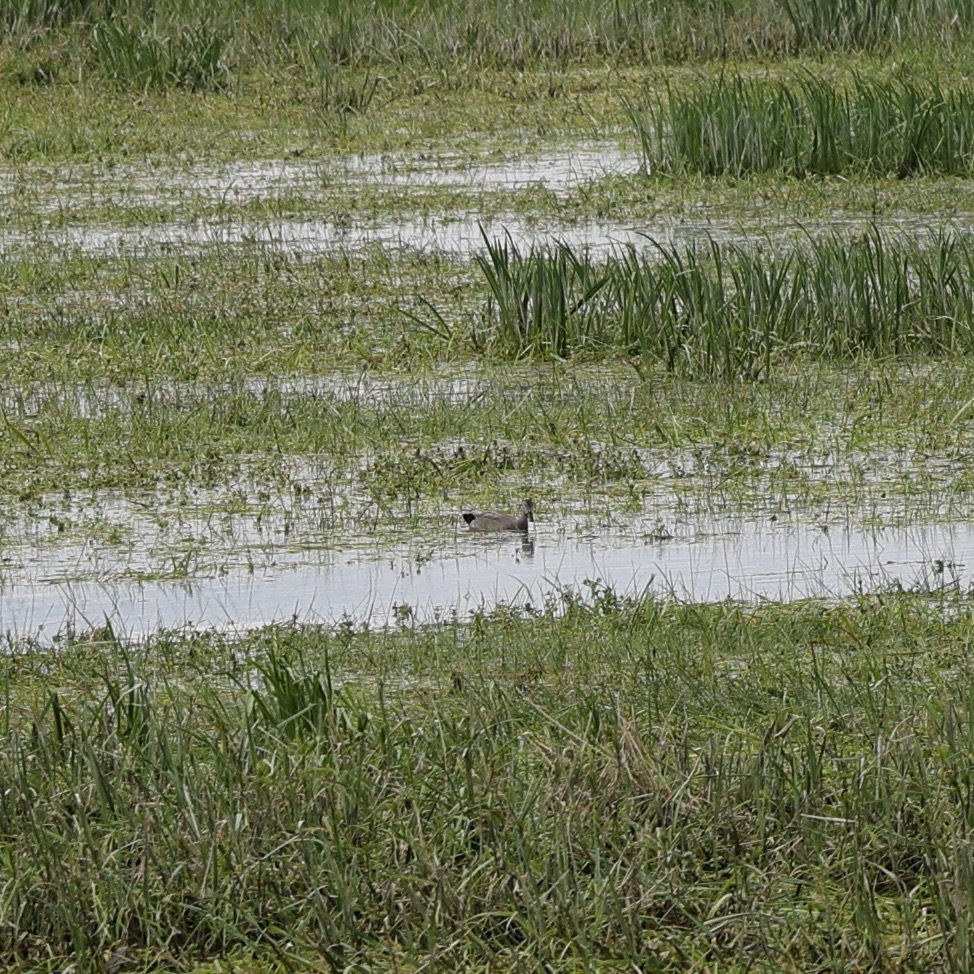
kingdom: Animalia
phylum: Chordata
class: Aves
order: Anseriformes
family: Anatidae
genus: Mareca
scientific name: Mareca strepera
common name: Gadwall
